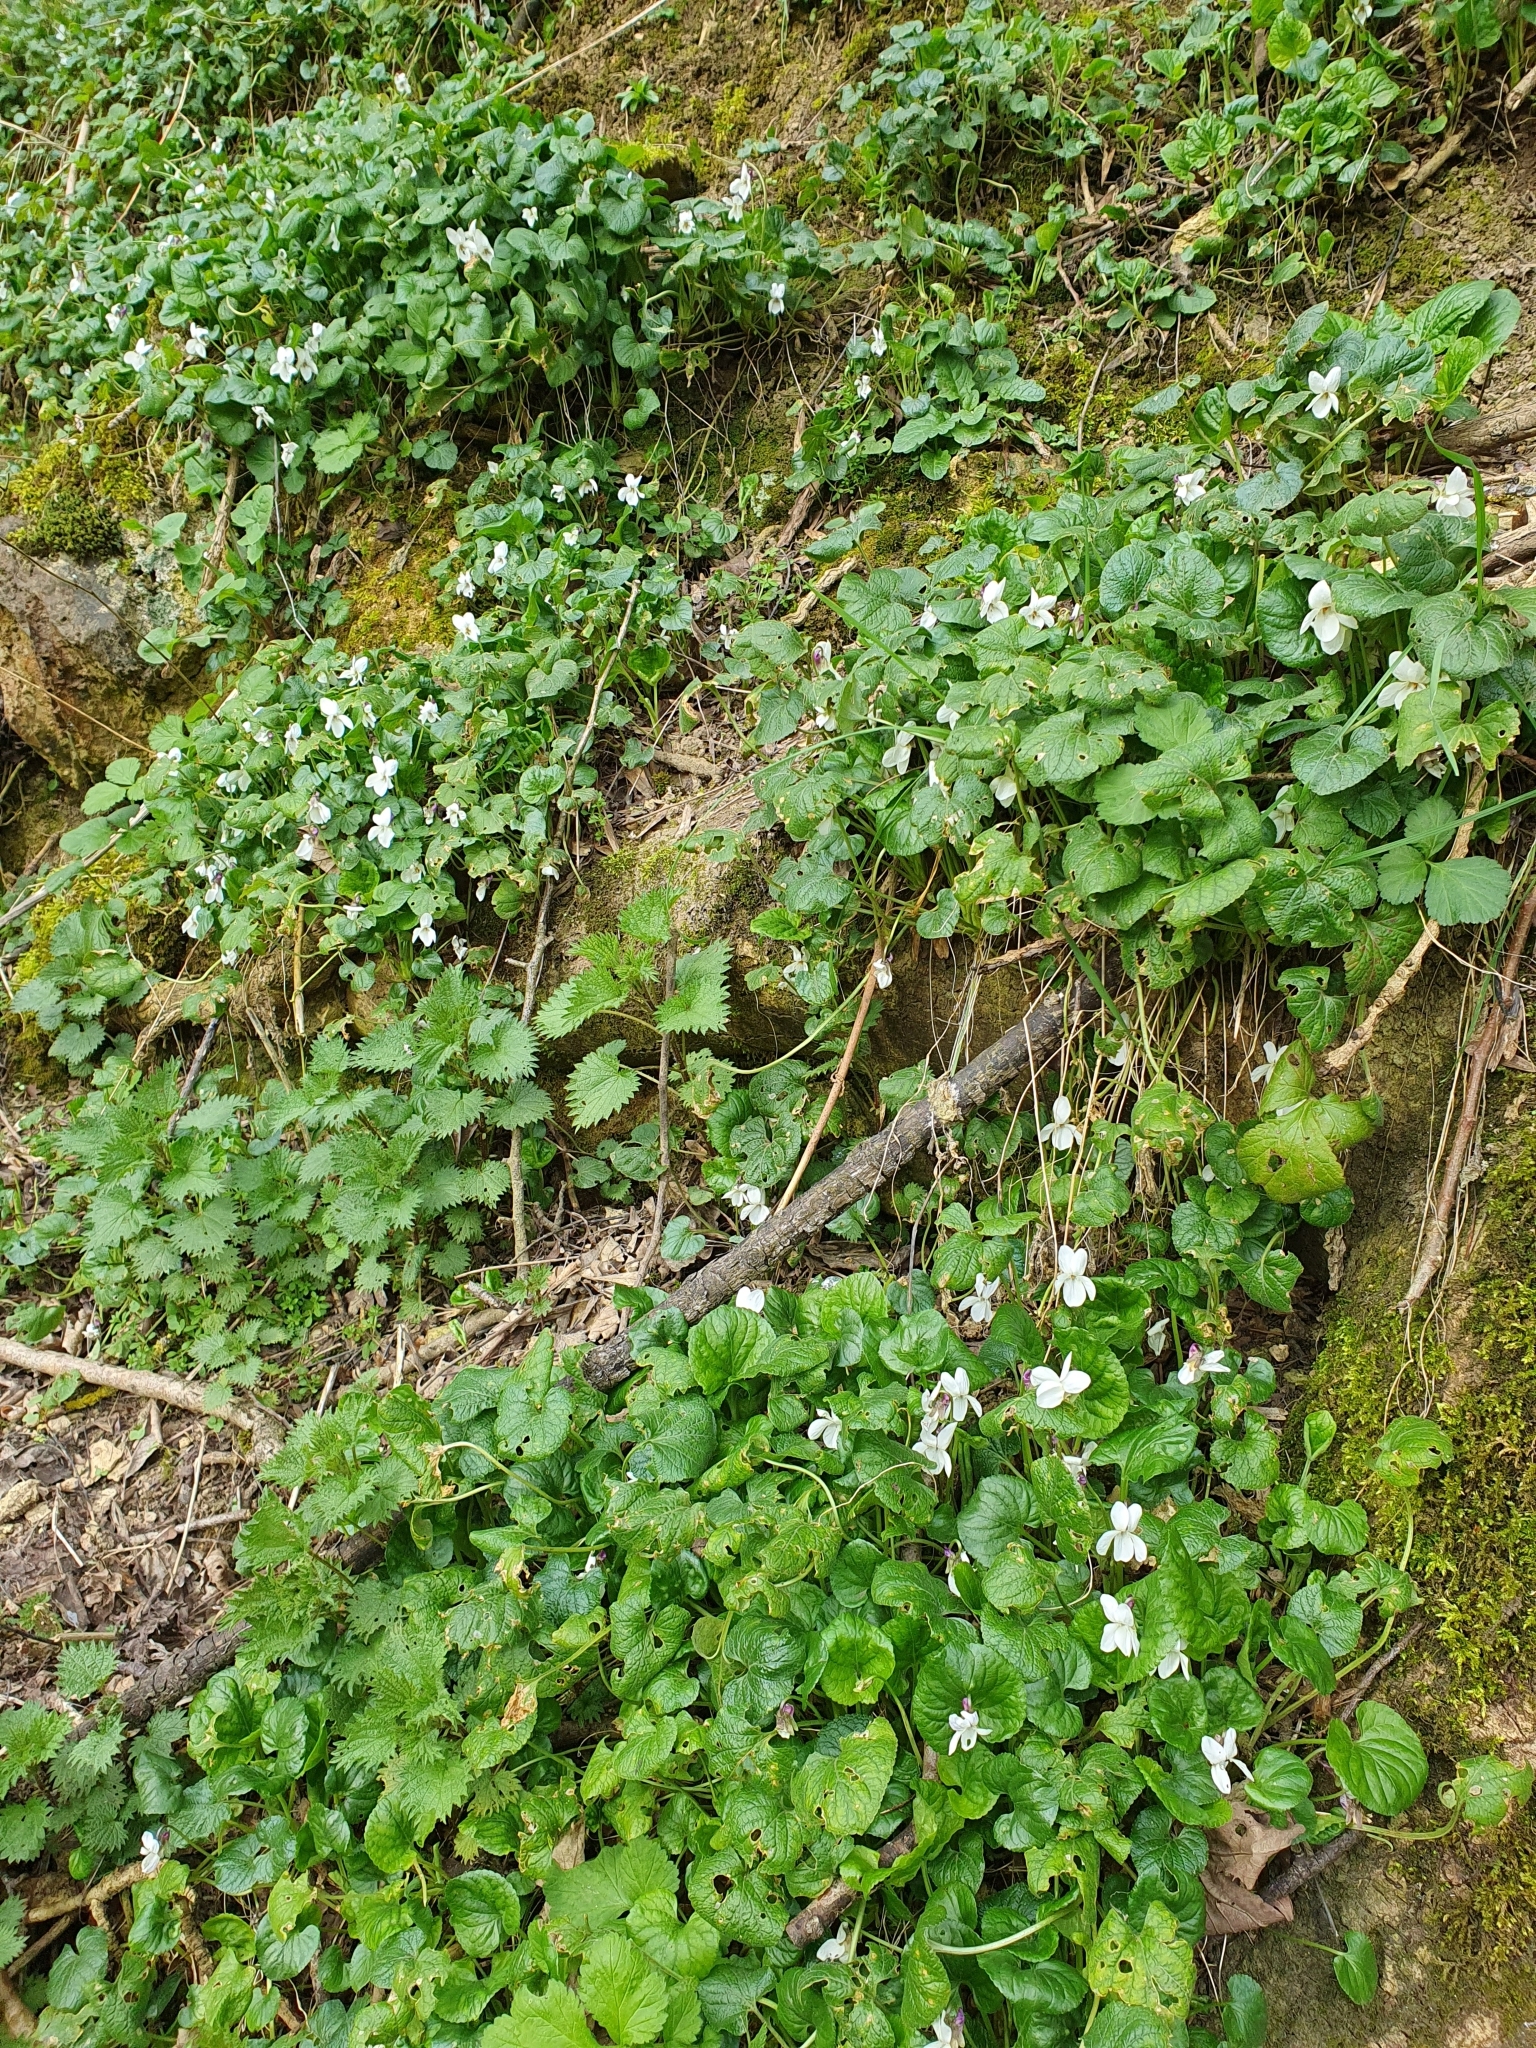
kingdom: Plantae
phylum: Tracheophyta
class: Magnoliopsida
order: Malpighiales
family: Violaceae
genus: Viola
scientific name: Viola odorata
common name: Sweet violet
